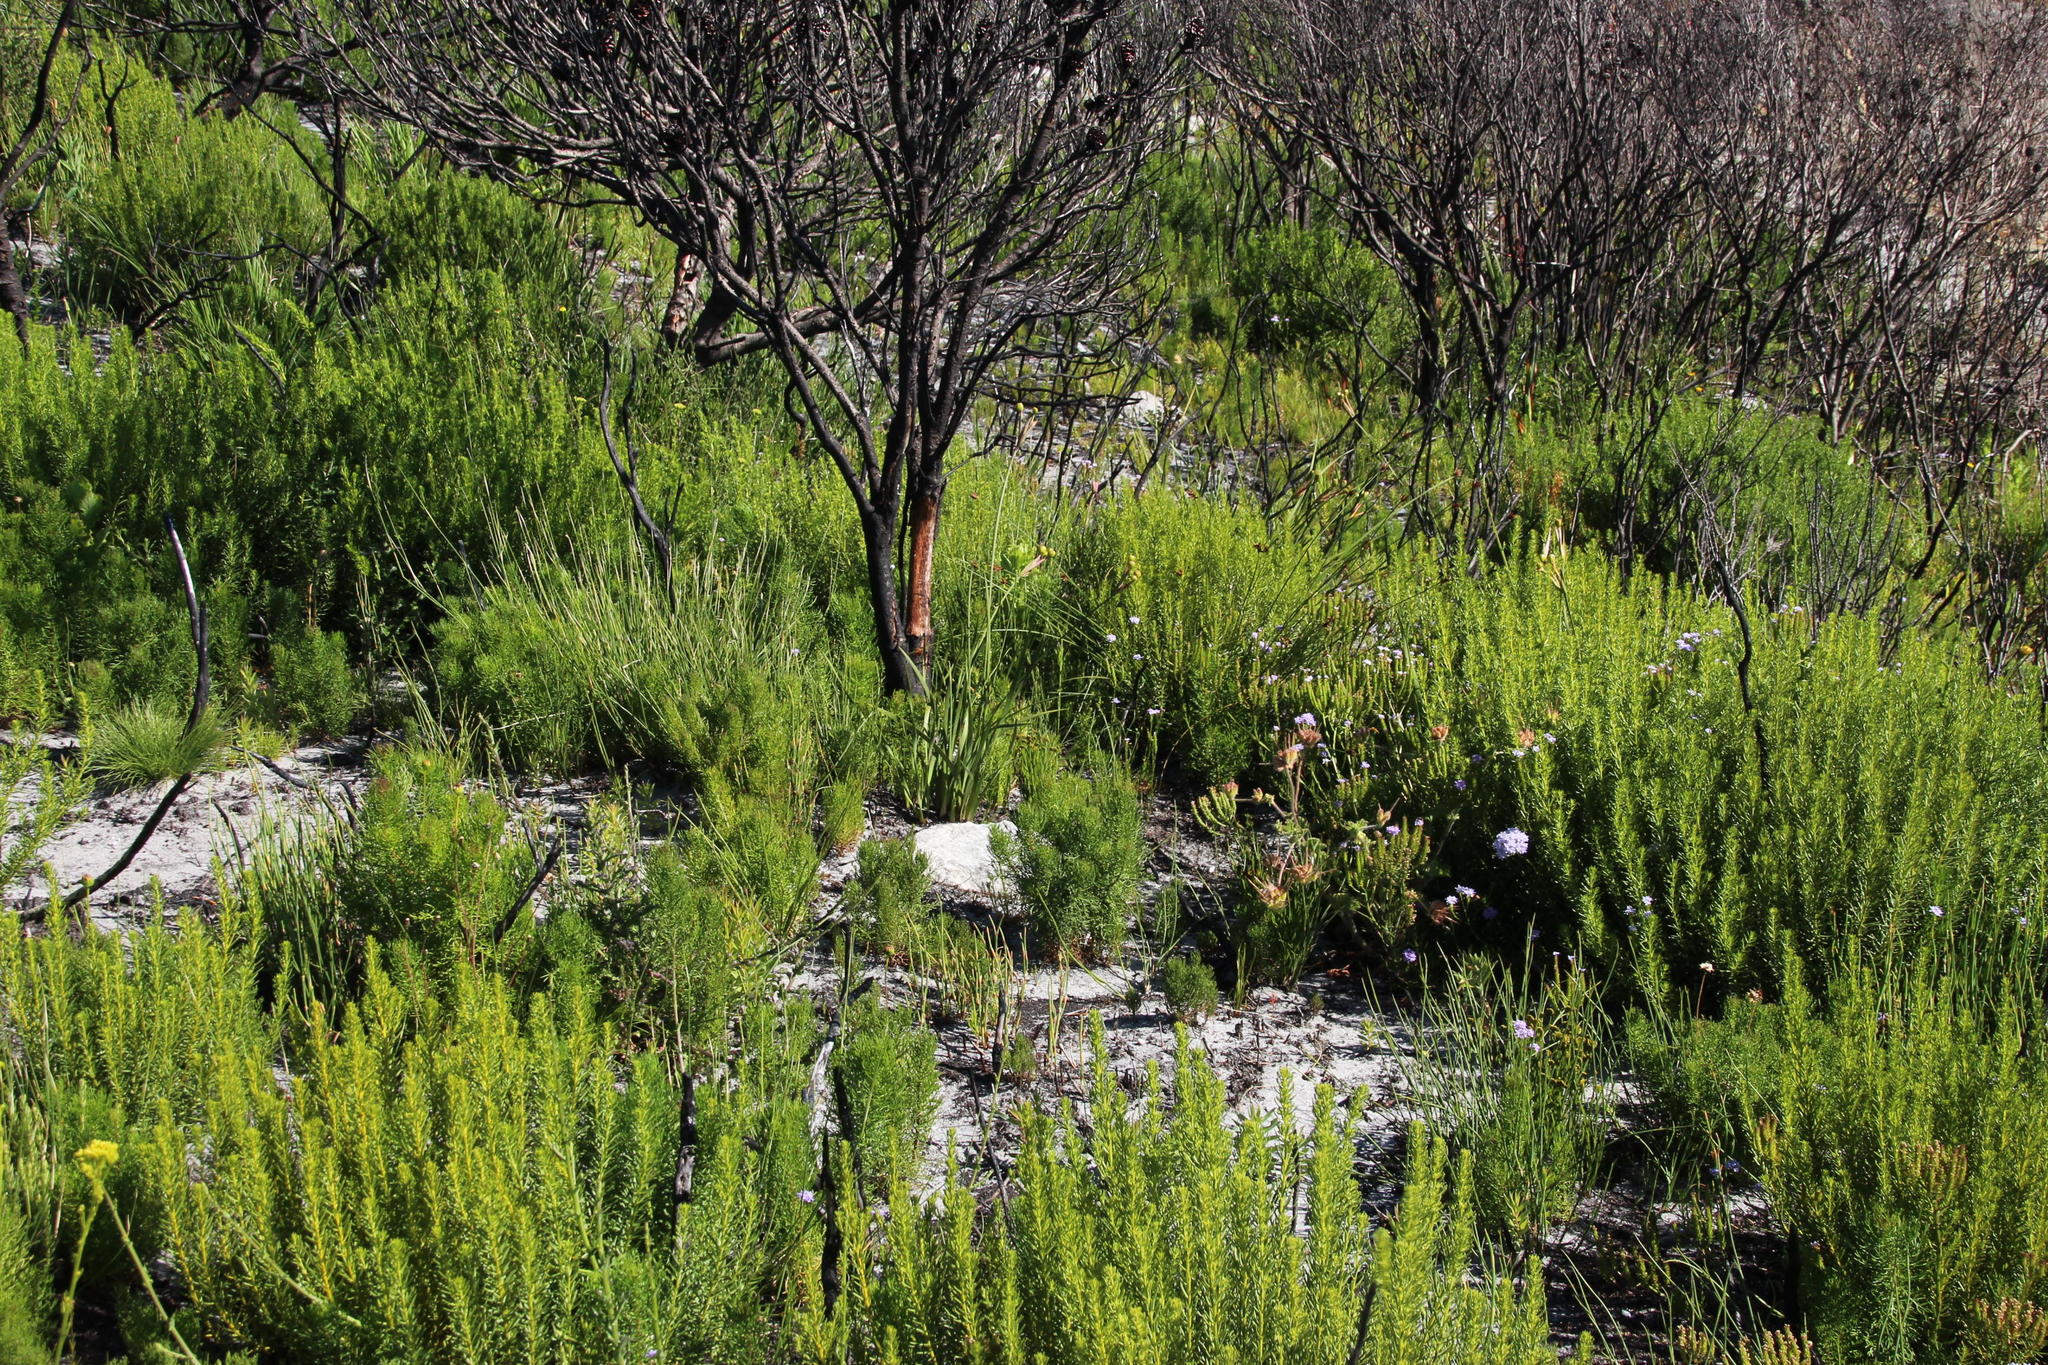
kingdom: Plantae
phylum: Tracheophyta
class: Magnoliopsida
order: Lamiales
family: Scrophulariaceae
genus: Pseudoselago
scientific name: Pseudoselago spuria
